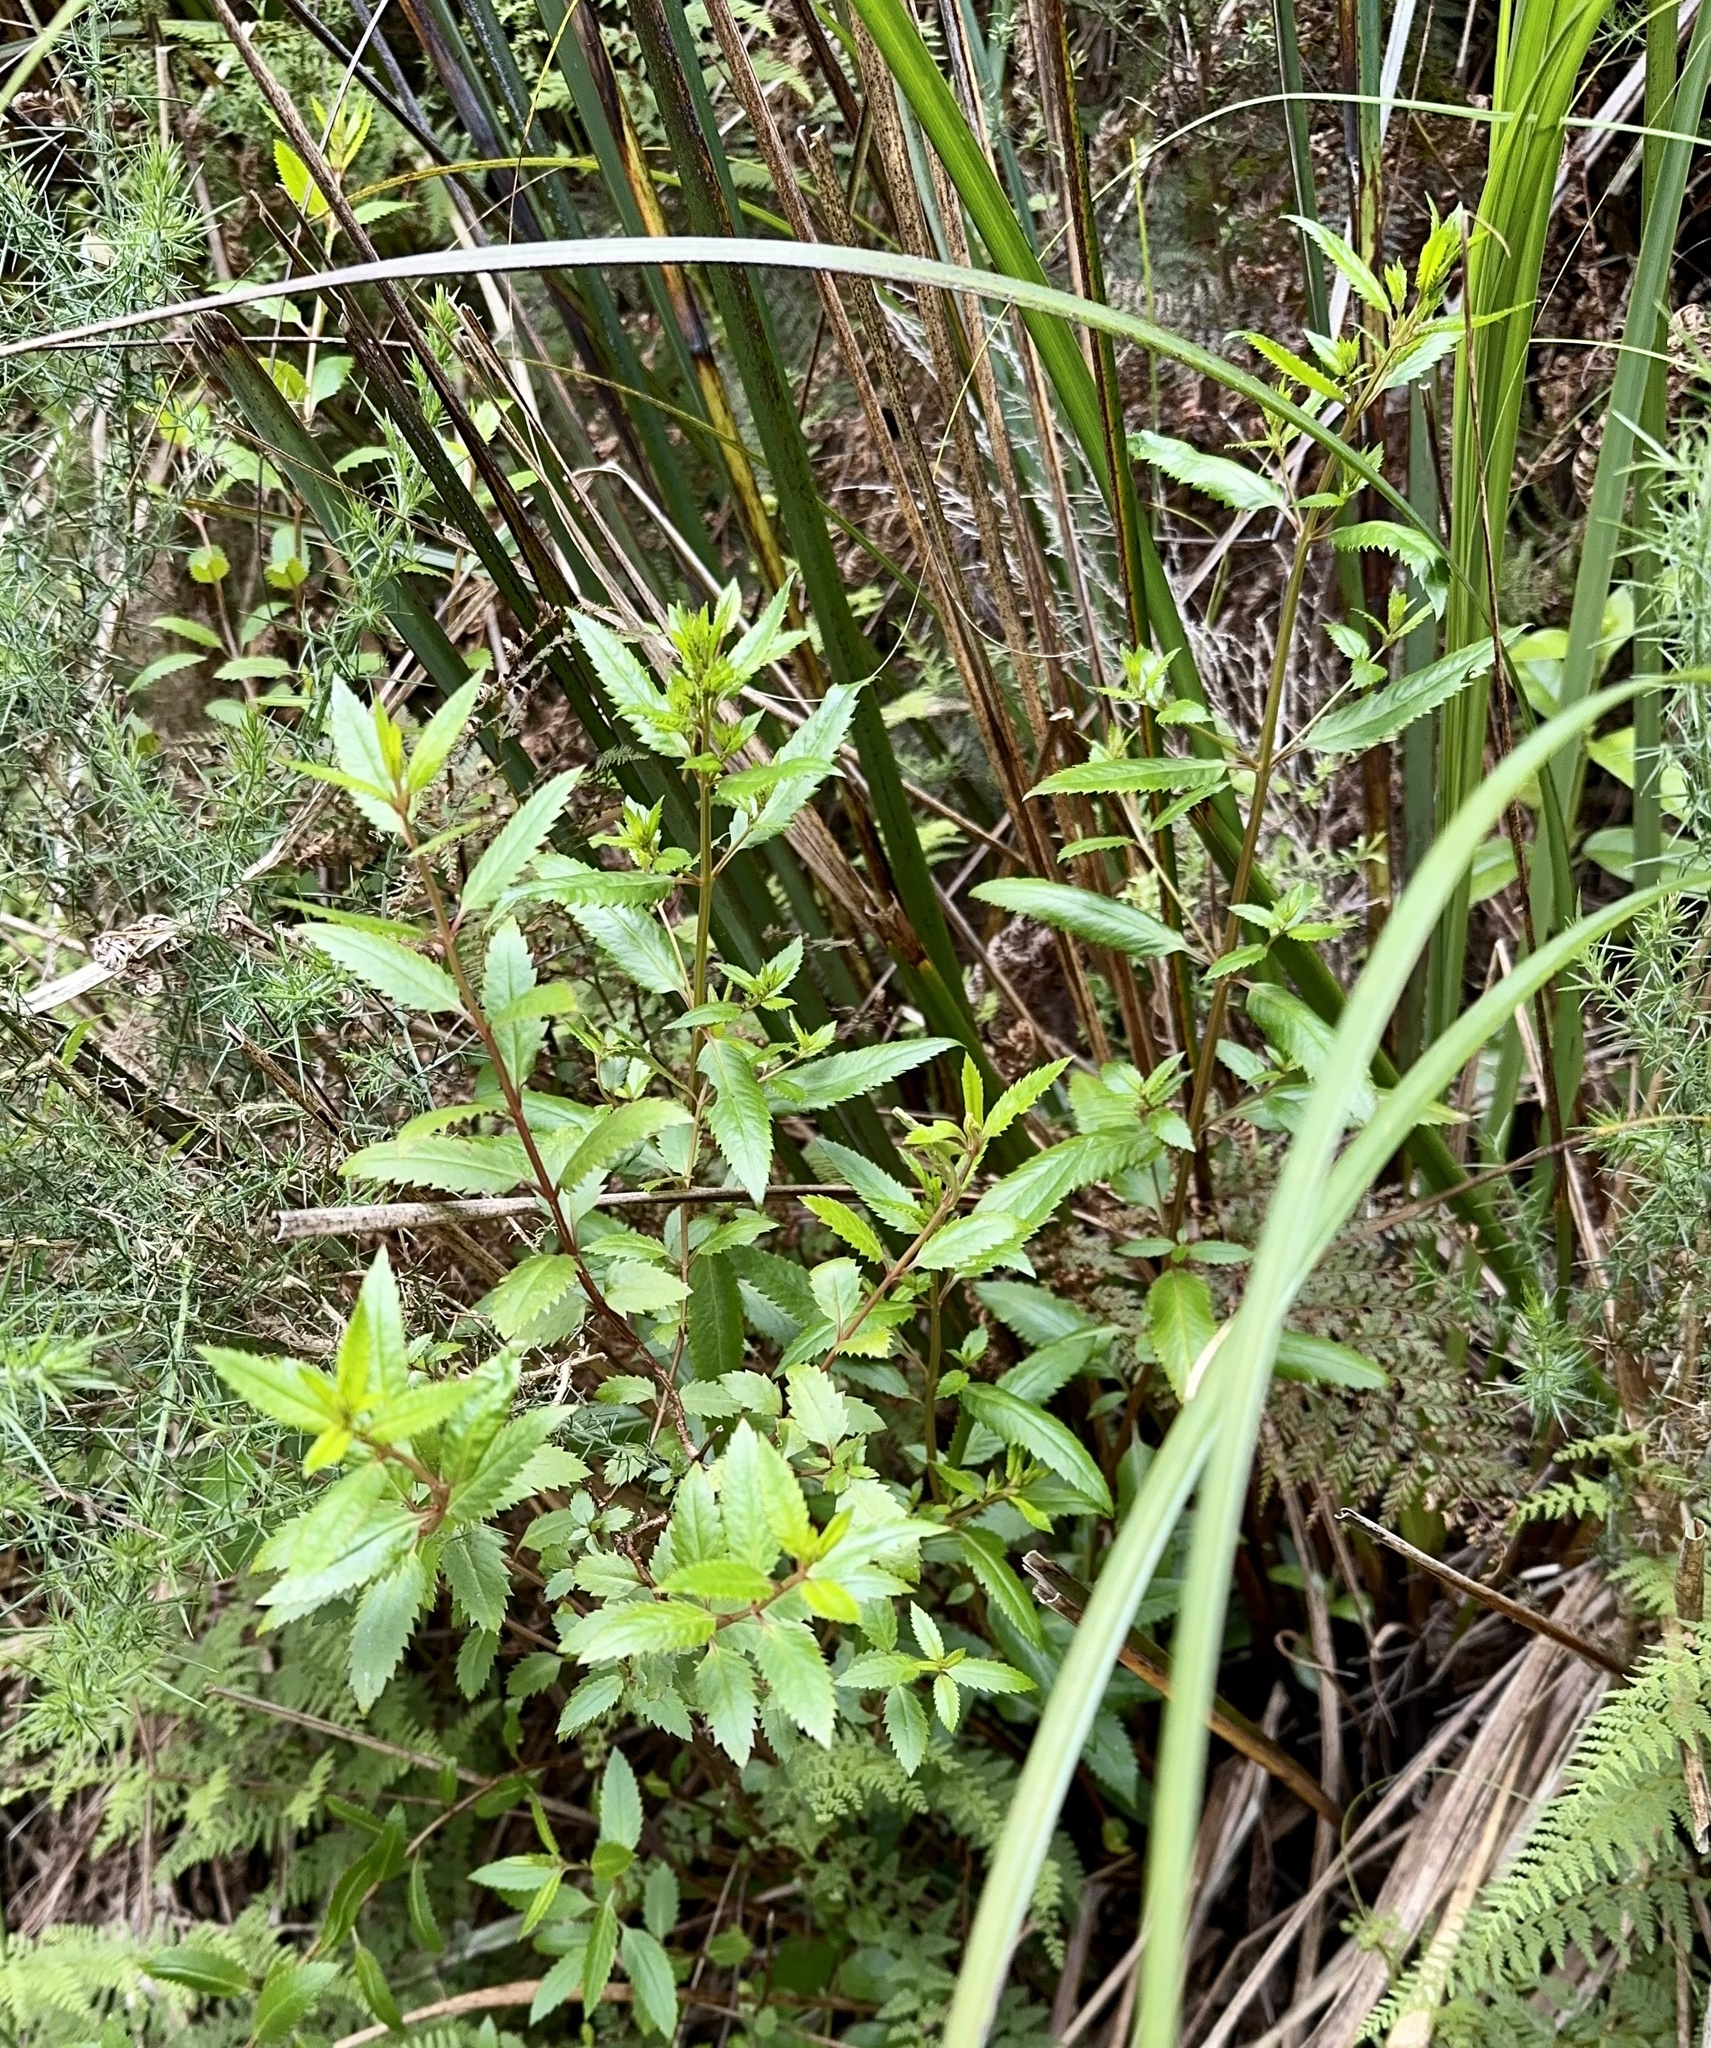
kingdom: Plantae
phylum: Tracheophyta
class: Magnoliopsida
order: Saxifragales
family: Haloragaceae
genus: Haloragis
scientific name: Haloragis erecta
